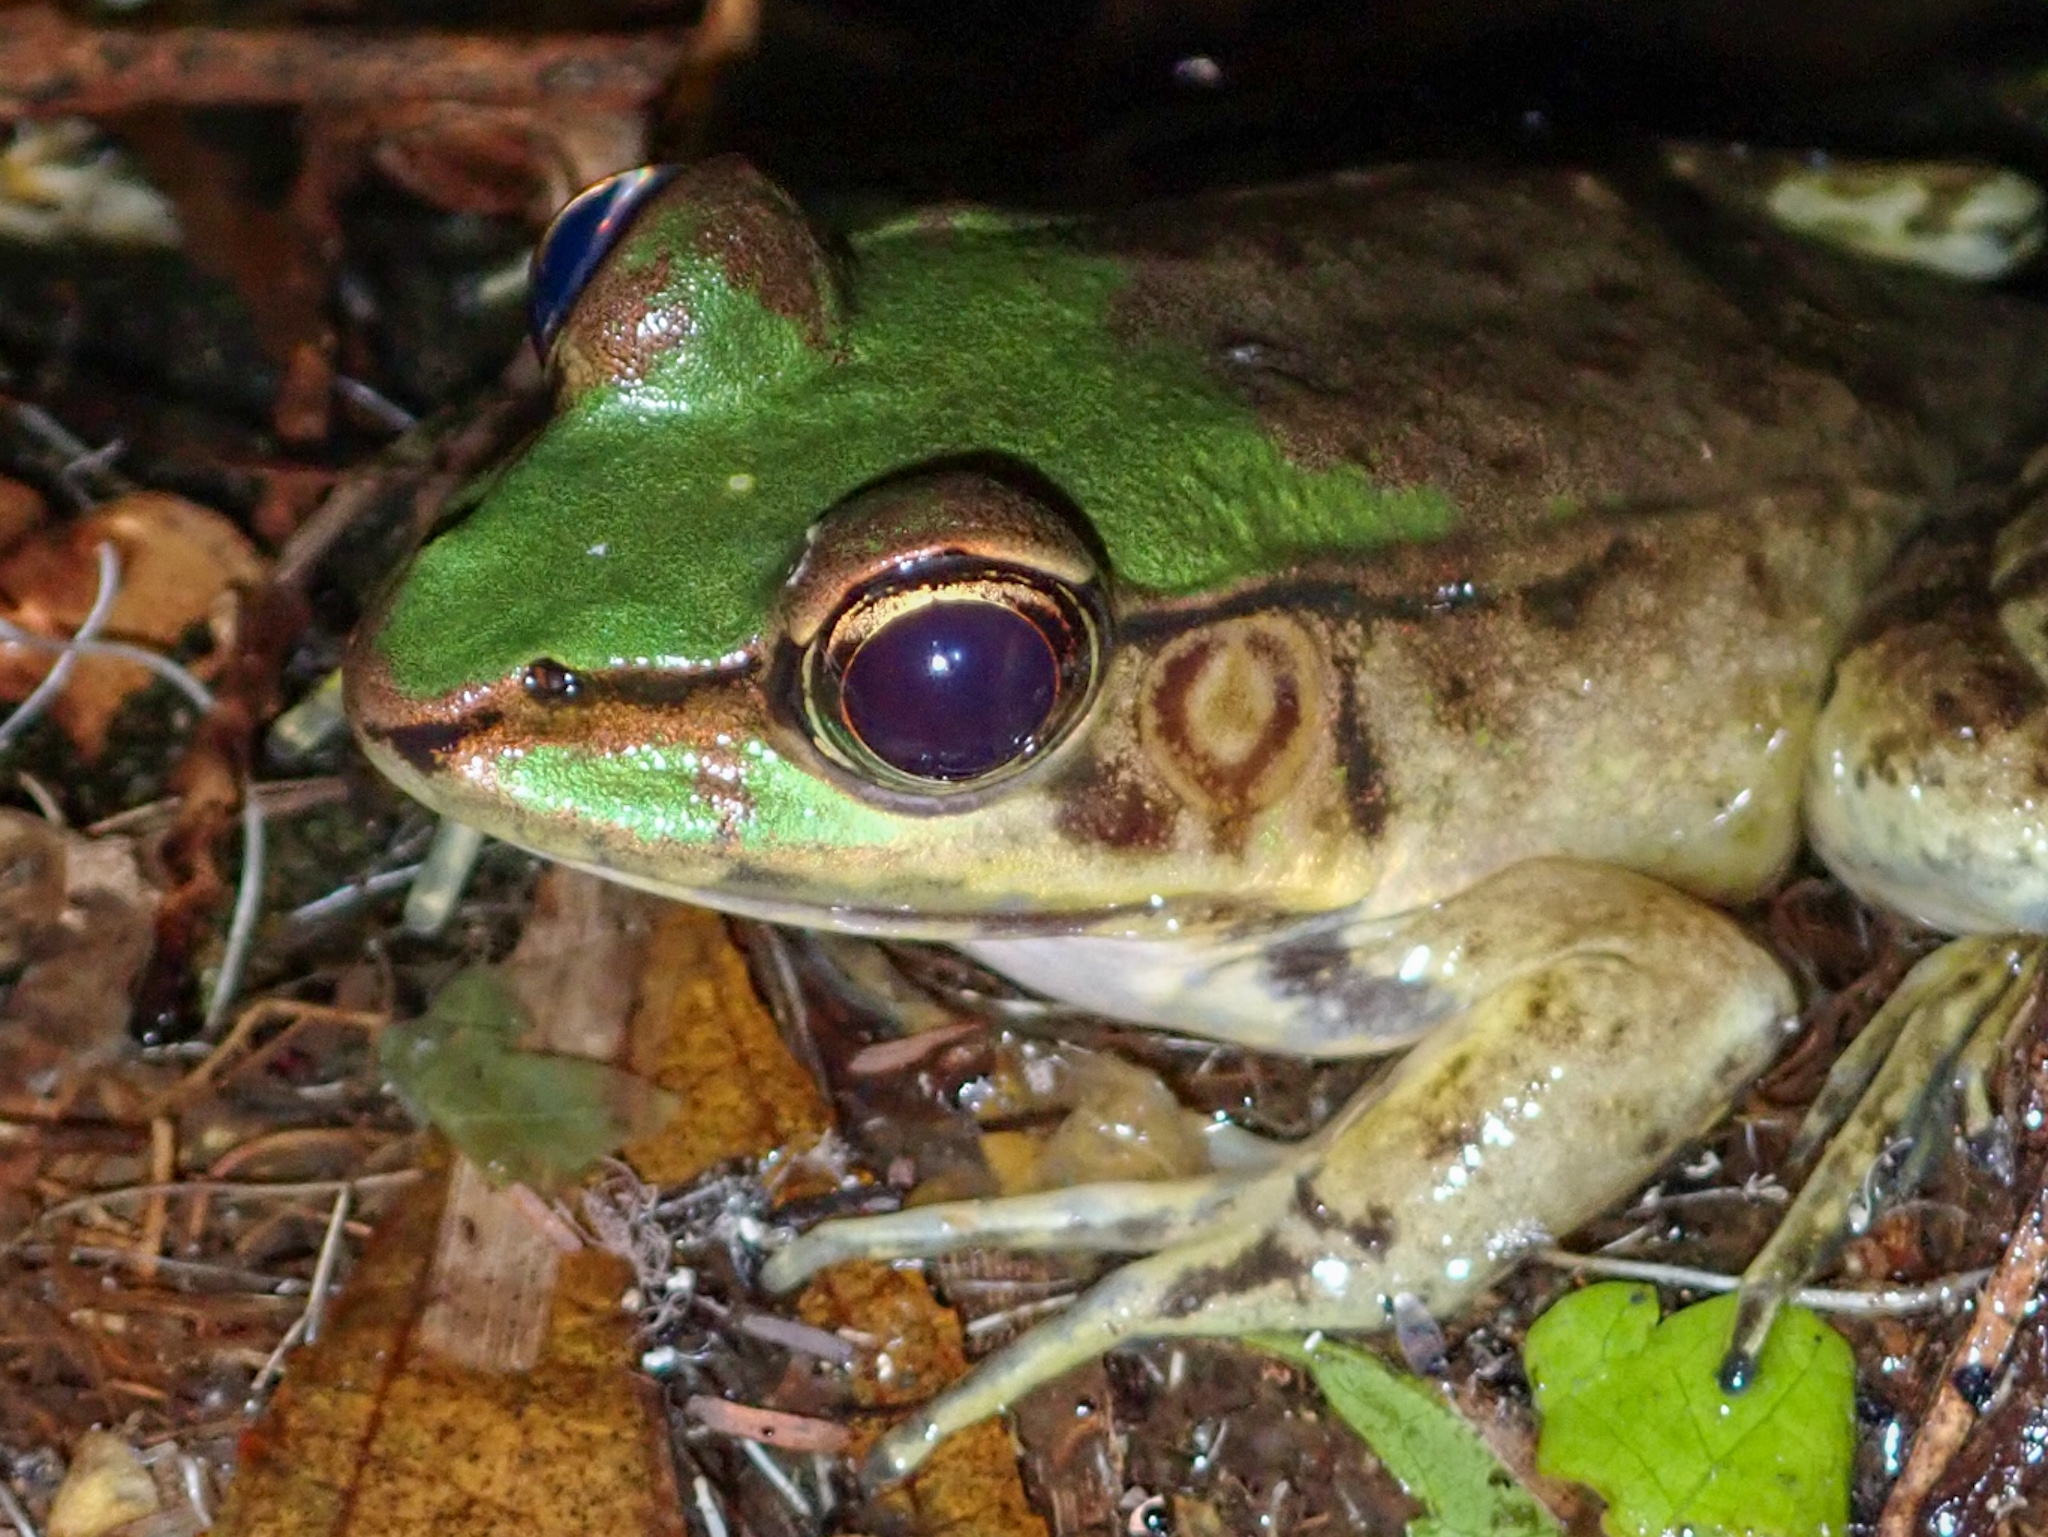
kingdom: Animalia
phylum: Chordata
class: Amphibia
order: Anura
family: Ranidae
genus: Lithobates
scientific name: Lithobates vaillanti
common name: Vaillant's frog
